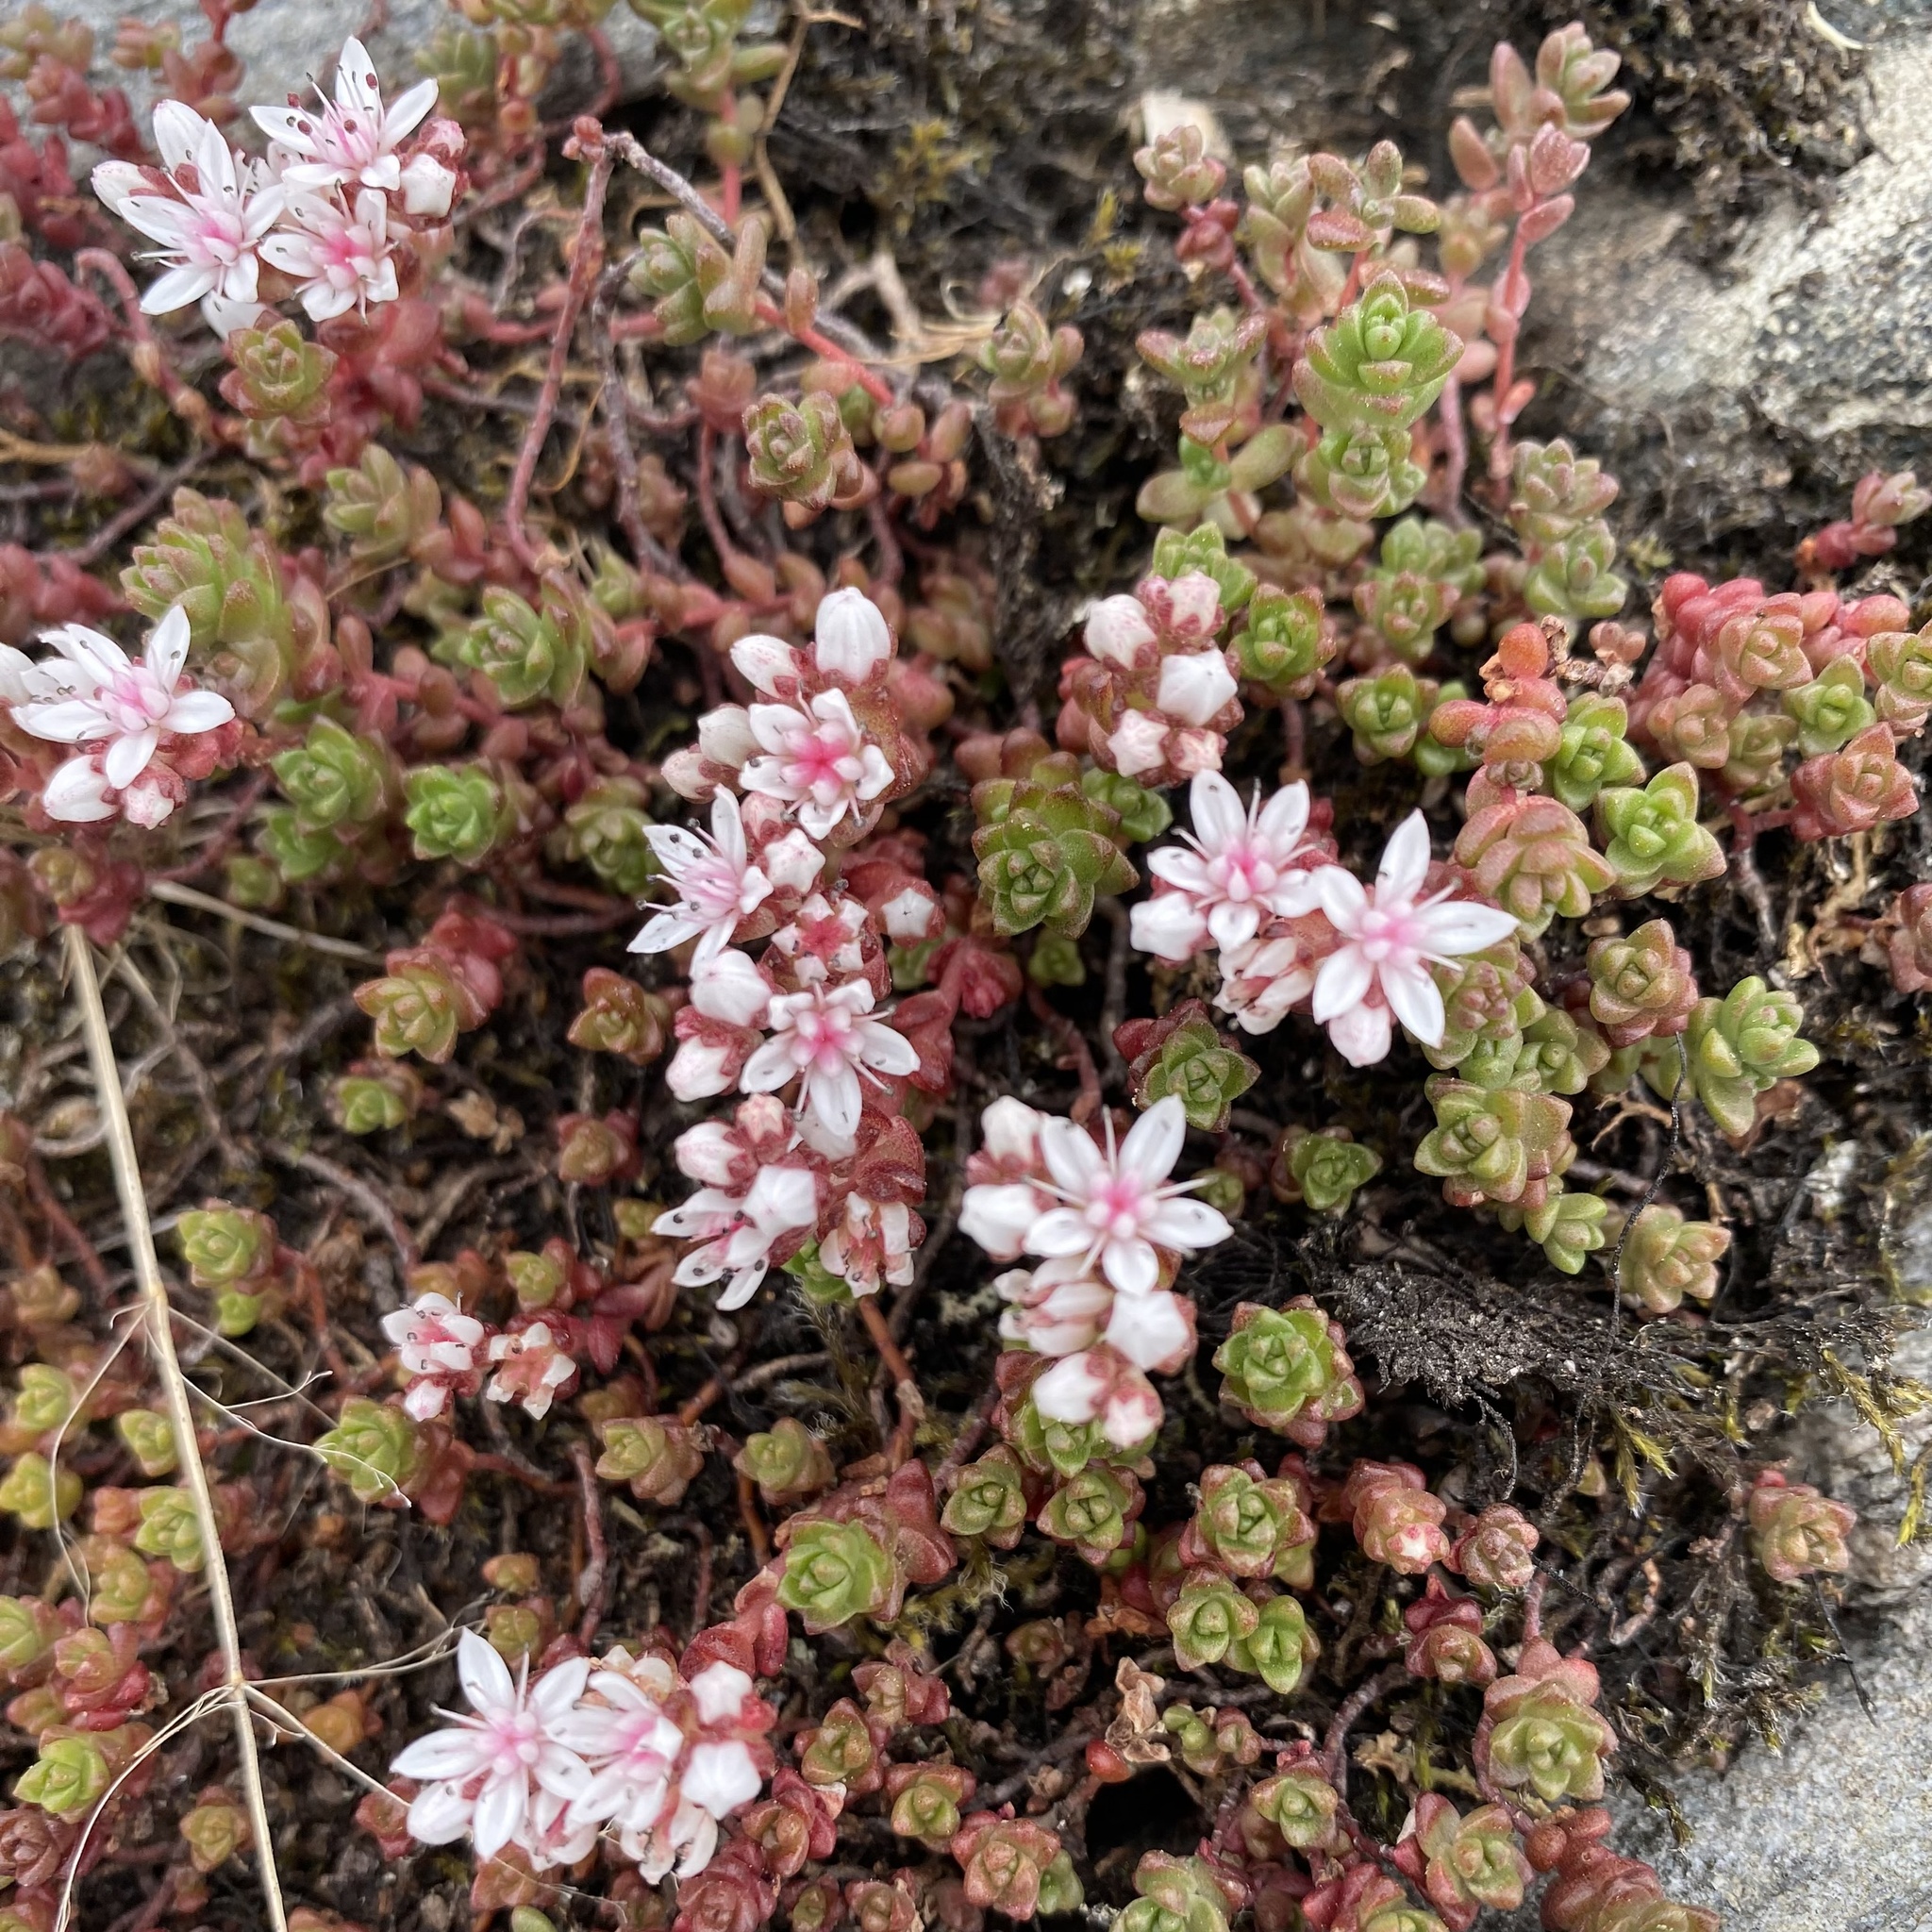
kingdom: Plantae
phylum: Tracheophyta
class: Magnoliopsida
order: Saxifragales
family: Crassulaceae
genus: Sedum
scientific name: Sedum anglicum
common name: English stonecrop
